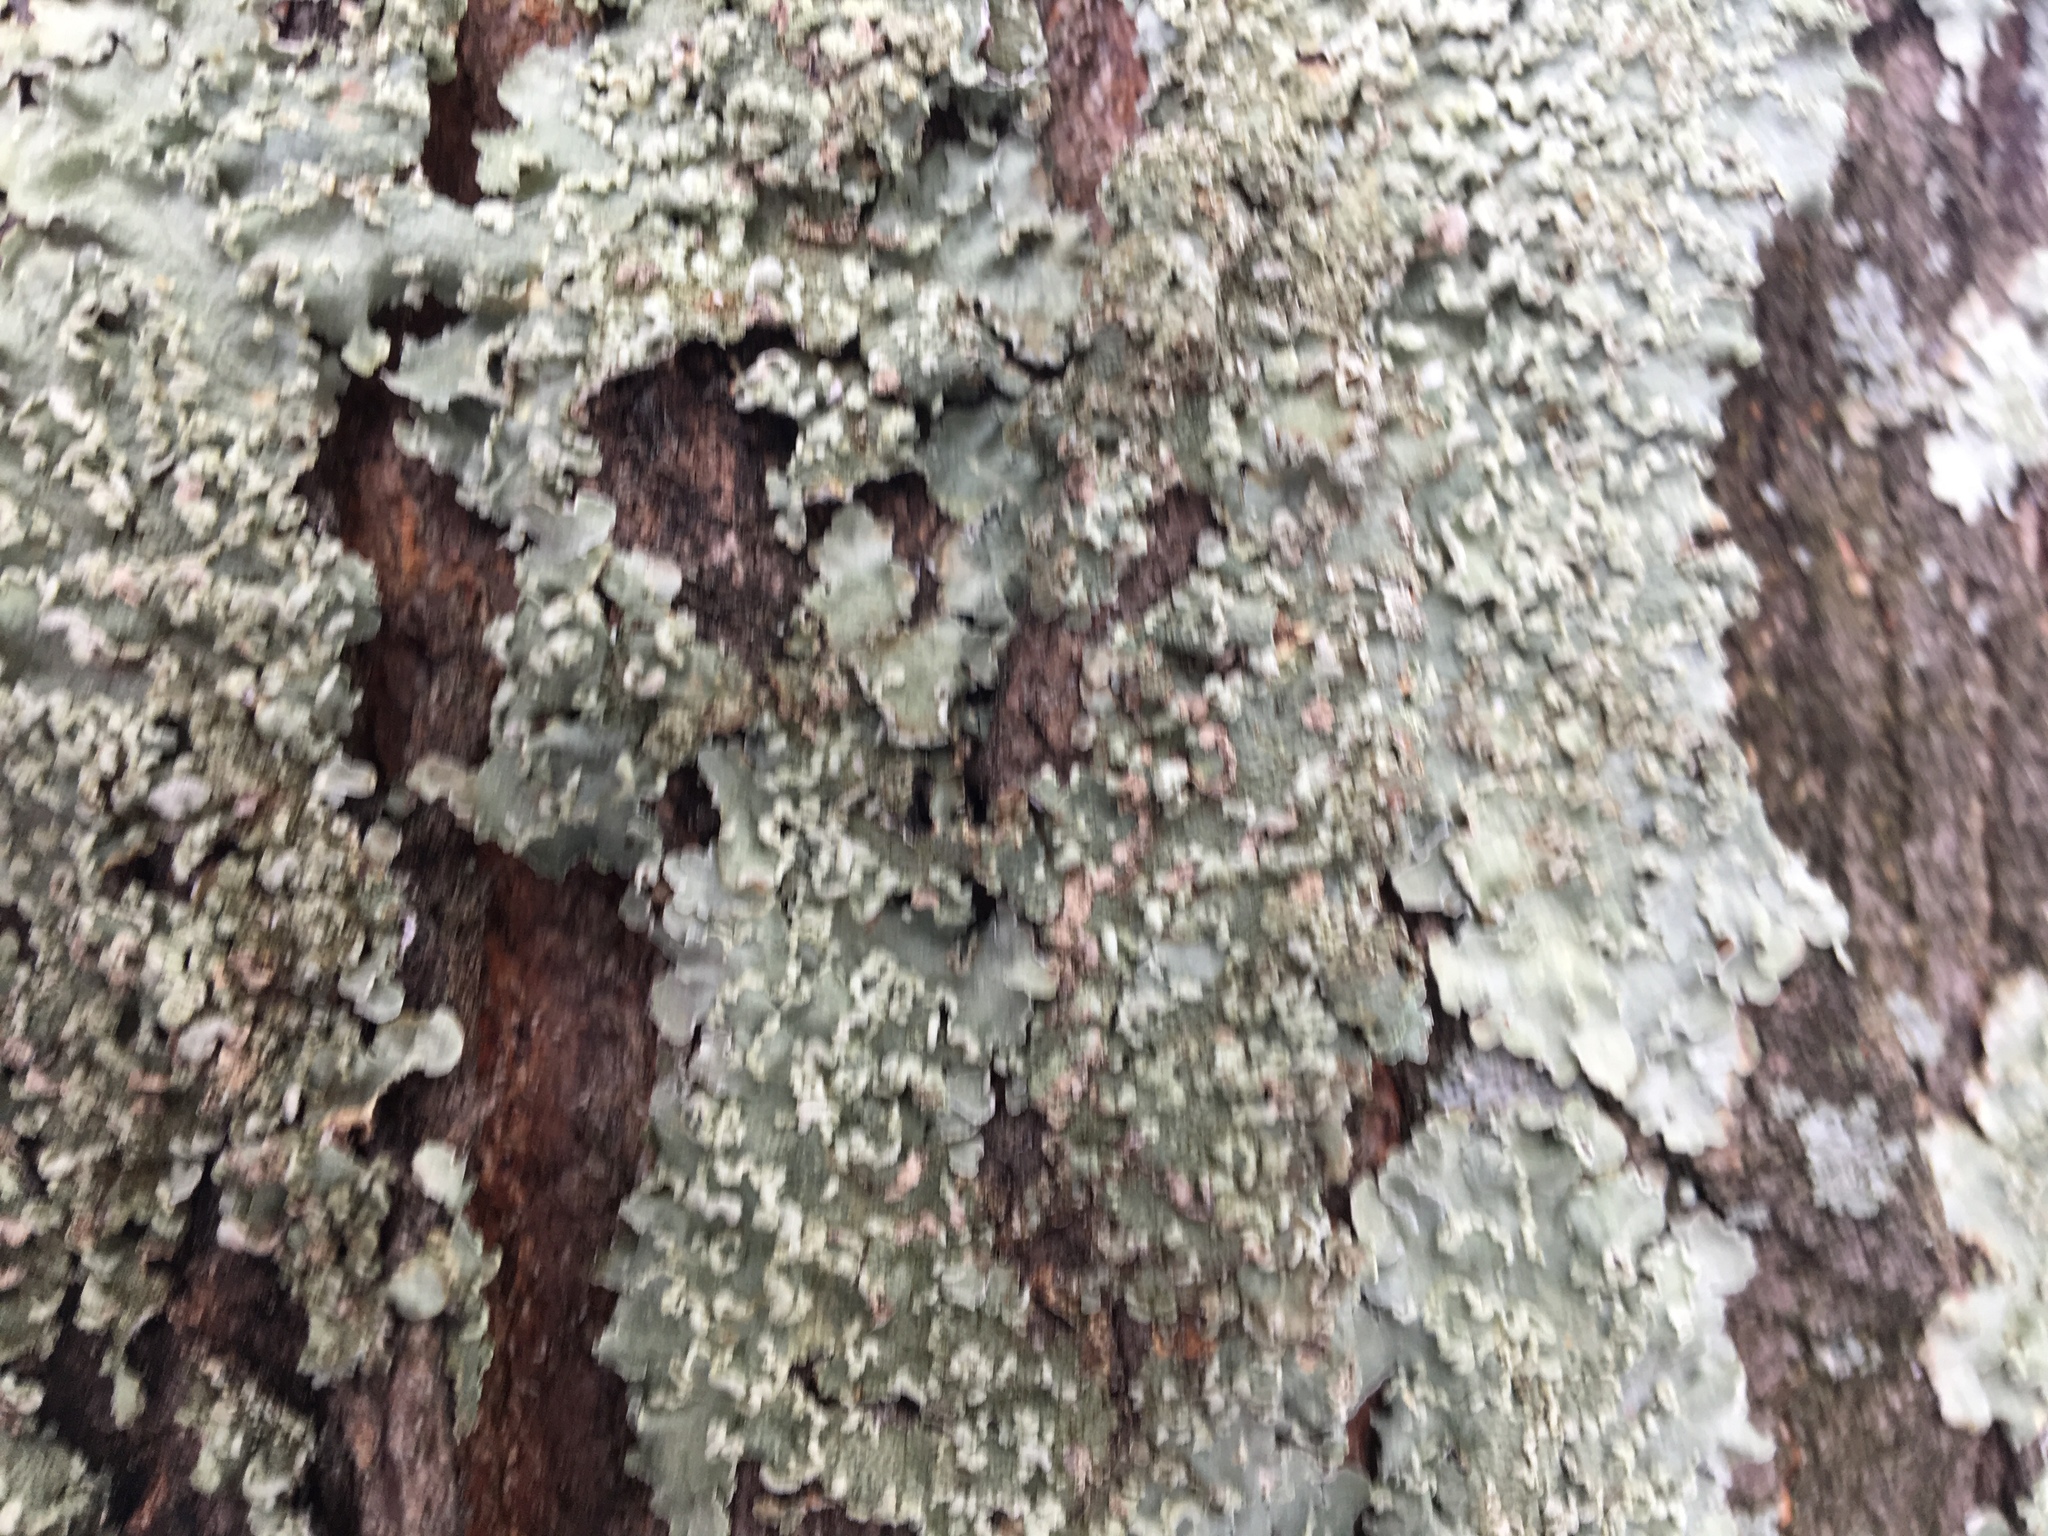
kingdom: Fungi
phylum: Ascomycota
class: Lecanoromycetes
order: Lecanorales
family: Parmeliaceae
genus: Flavopunctelia
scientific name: Flavopunctelia soredica
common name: Powder-edged speckled greenshield
